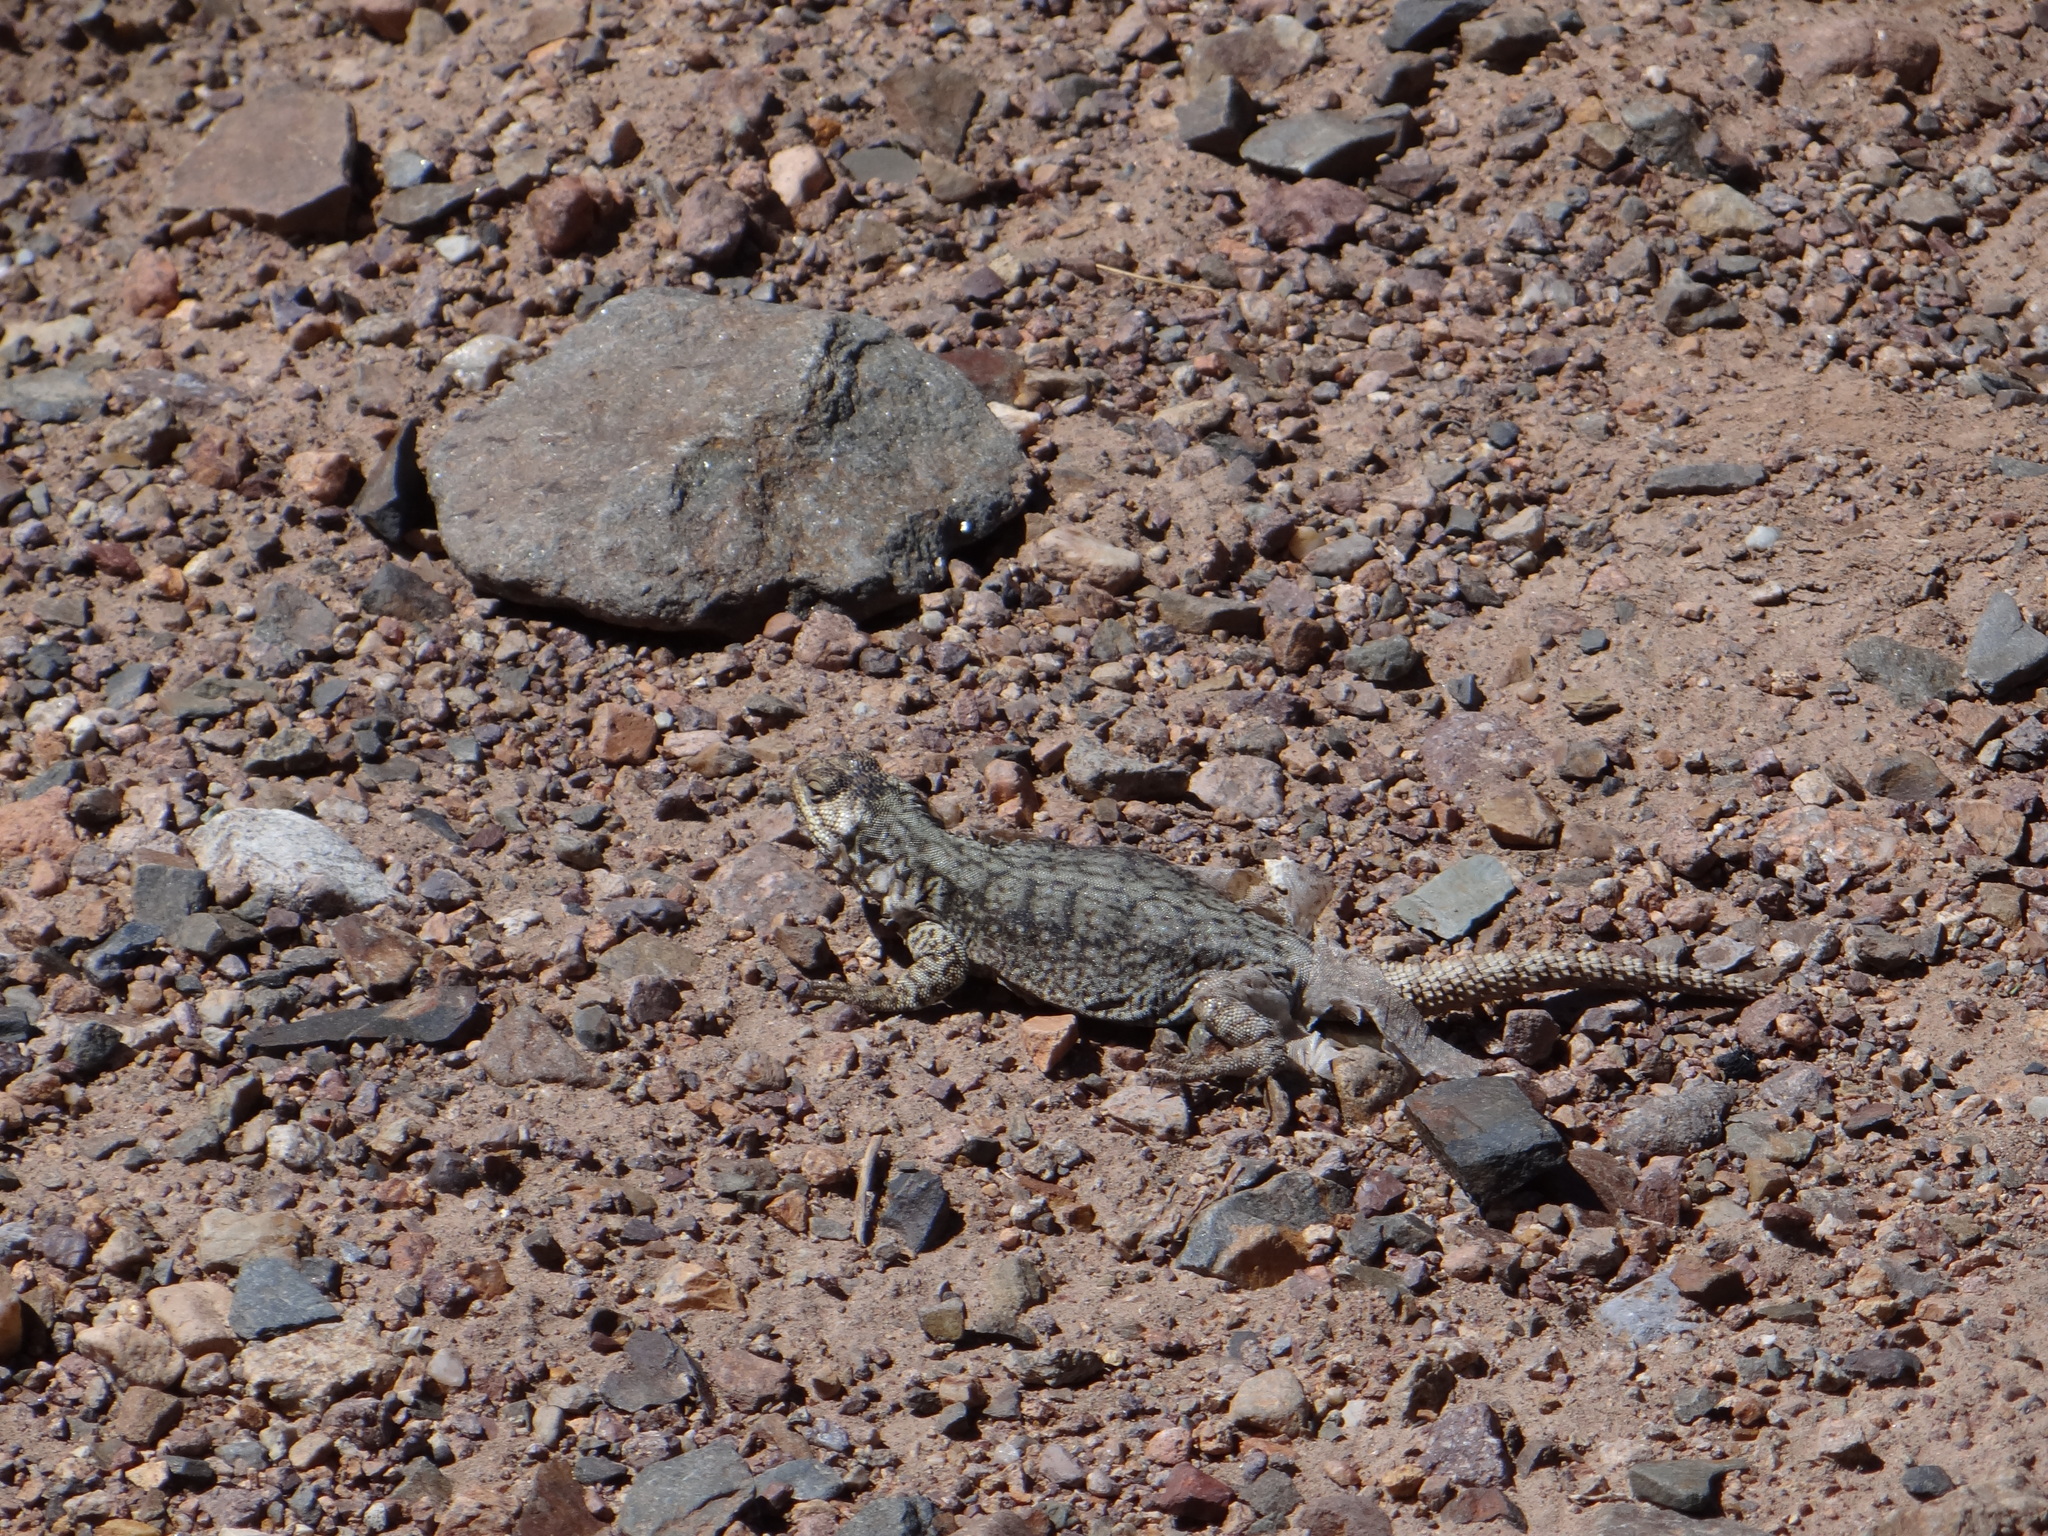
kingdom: Animalia
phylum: Chordata
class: Squamata
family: Liolaemidae
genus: Phymaturus
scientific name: Phymaturus palluma
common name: High mountain lizard
